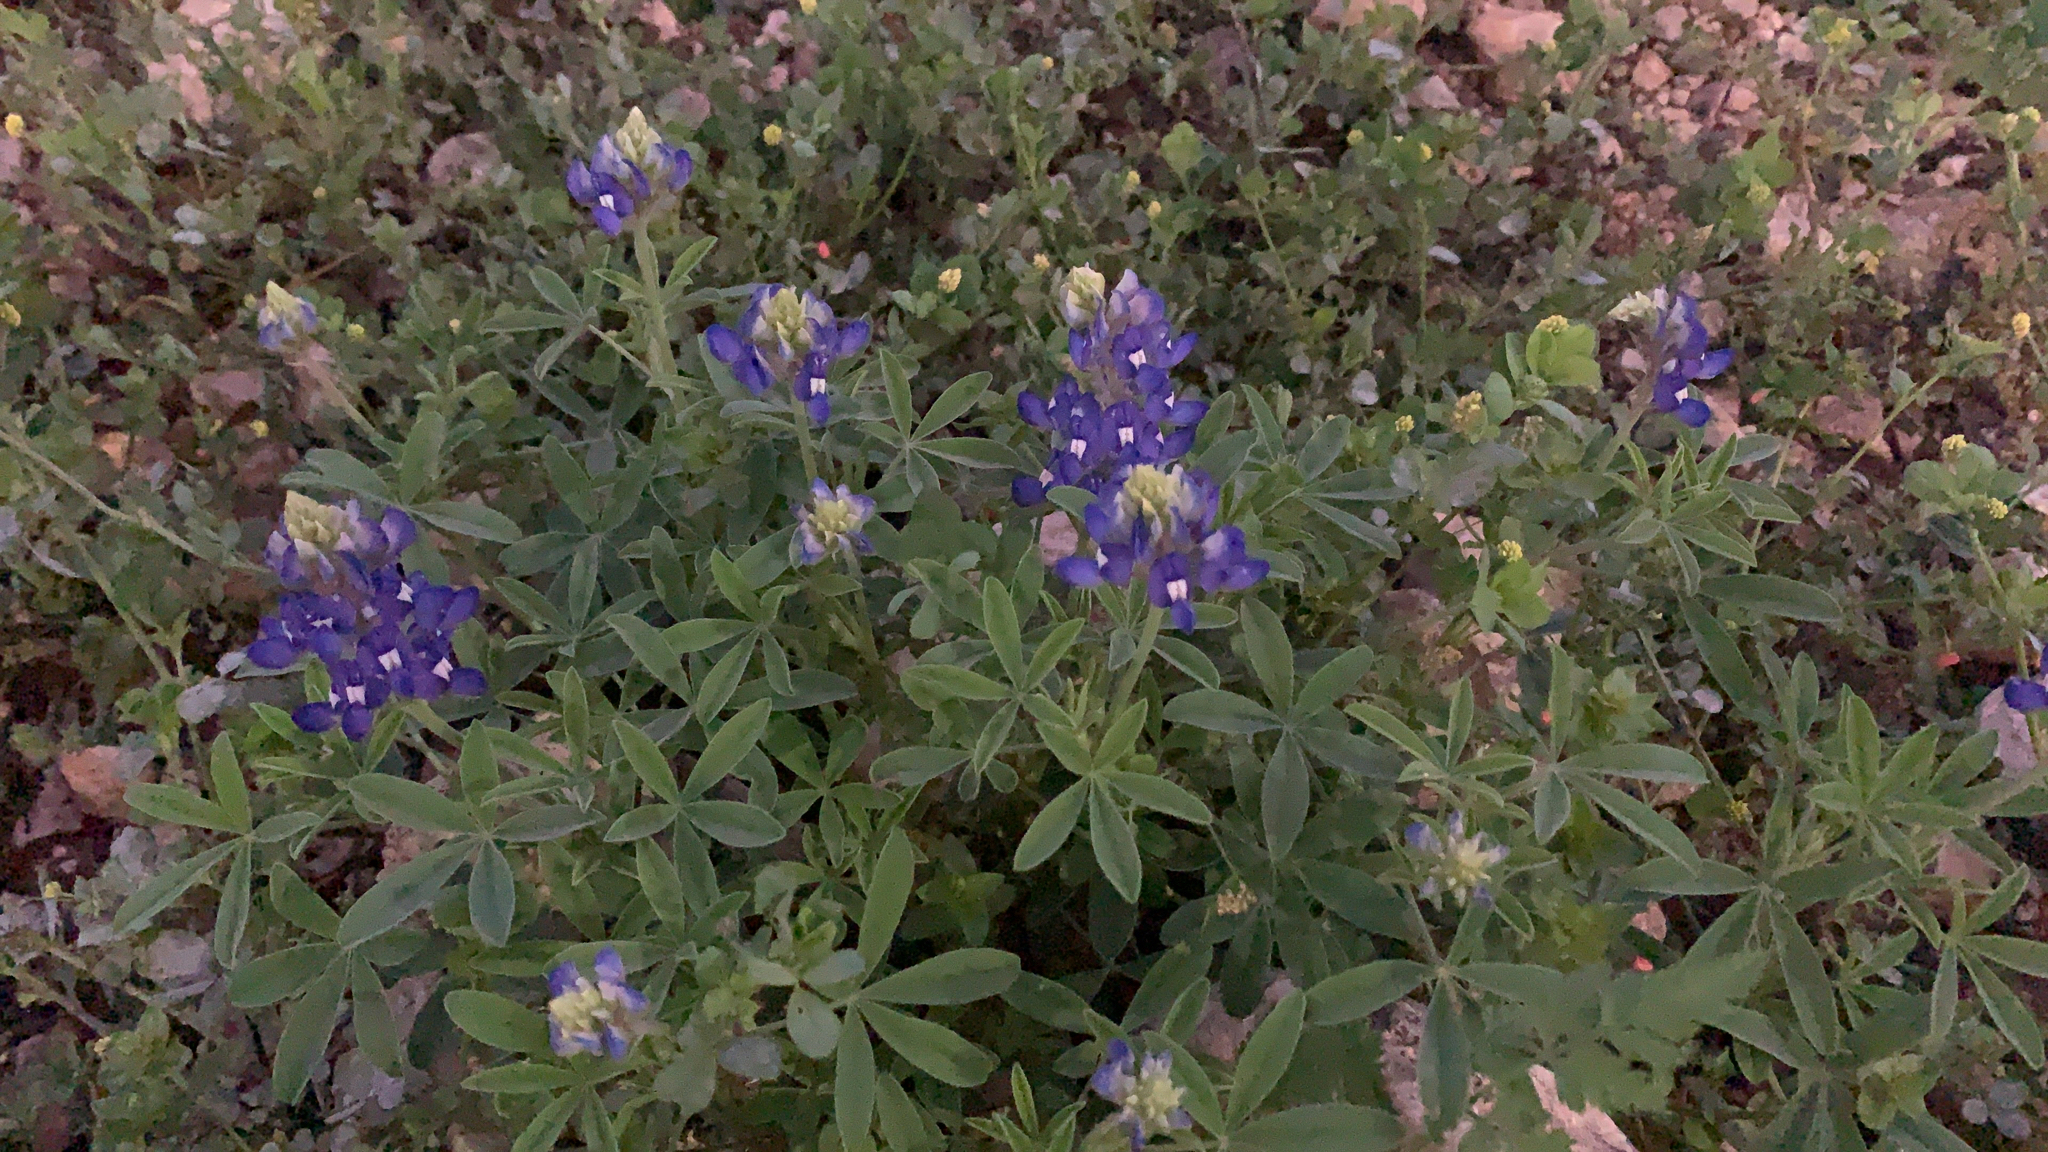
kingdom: Plantae
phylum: Tracheophyta
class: Magnoliopsida
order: Fabales
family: Fabaceae
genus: Lupinus
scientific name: Lupinus texensis
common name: Texas bluebonnet
